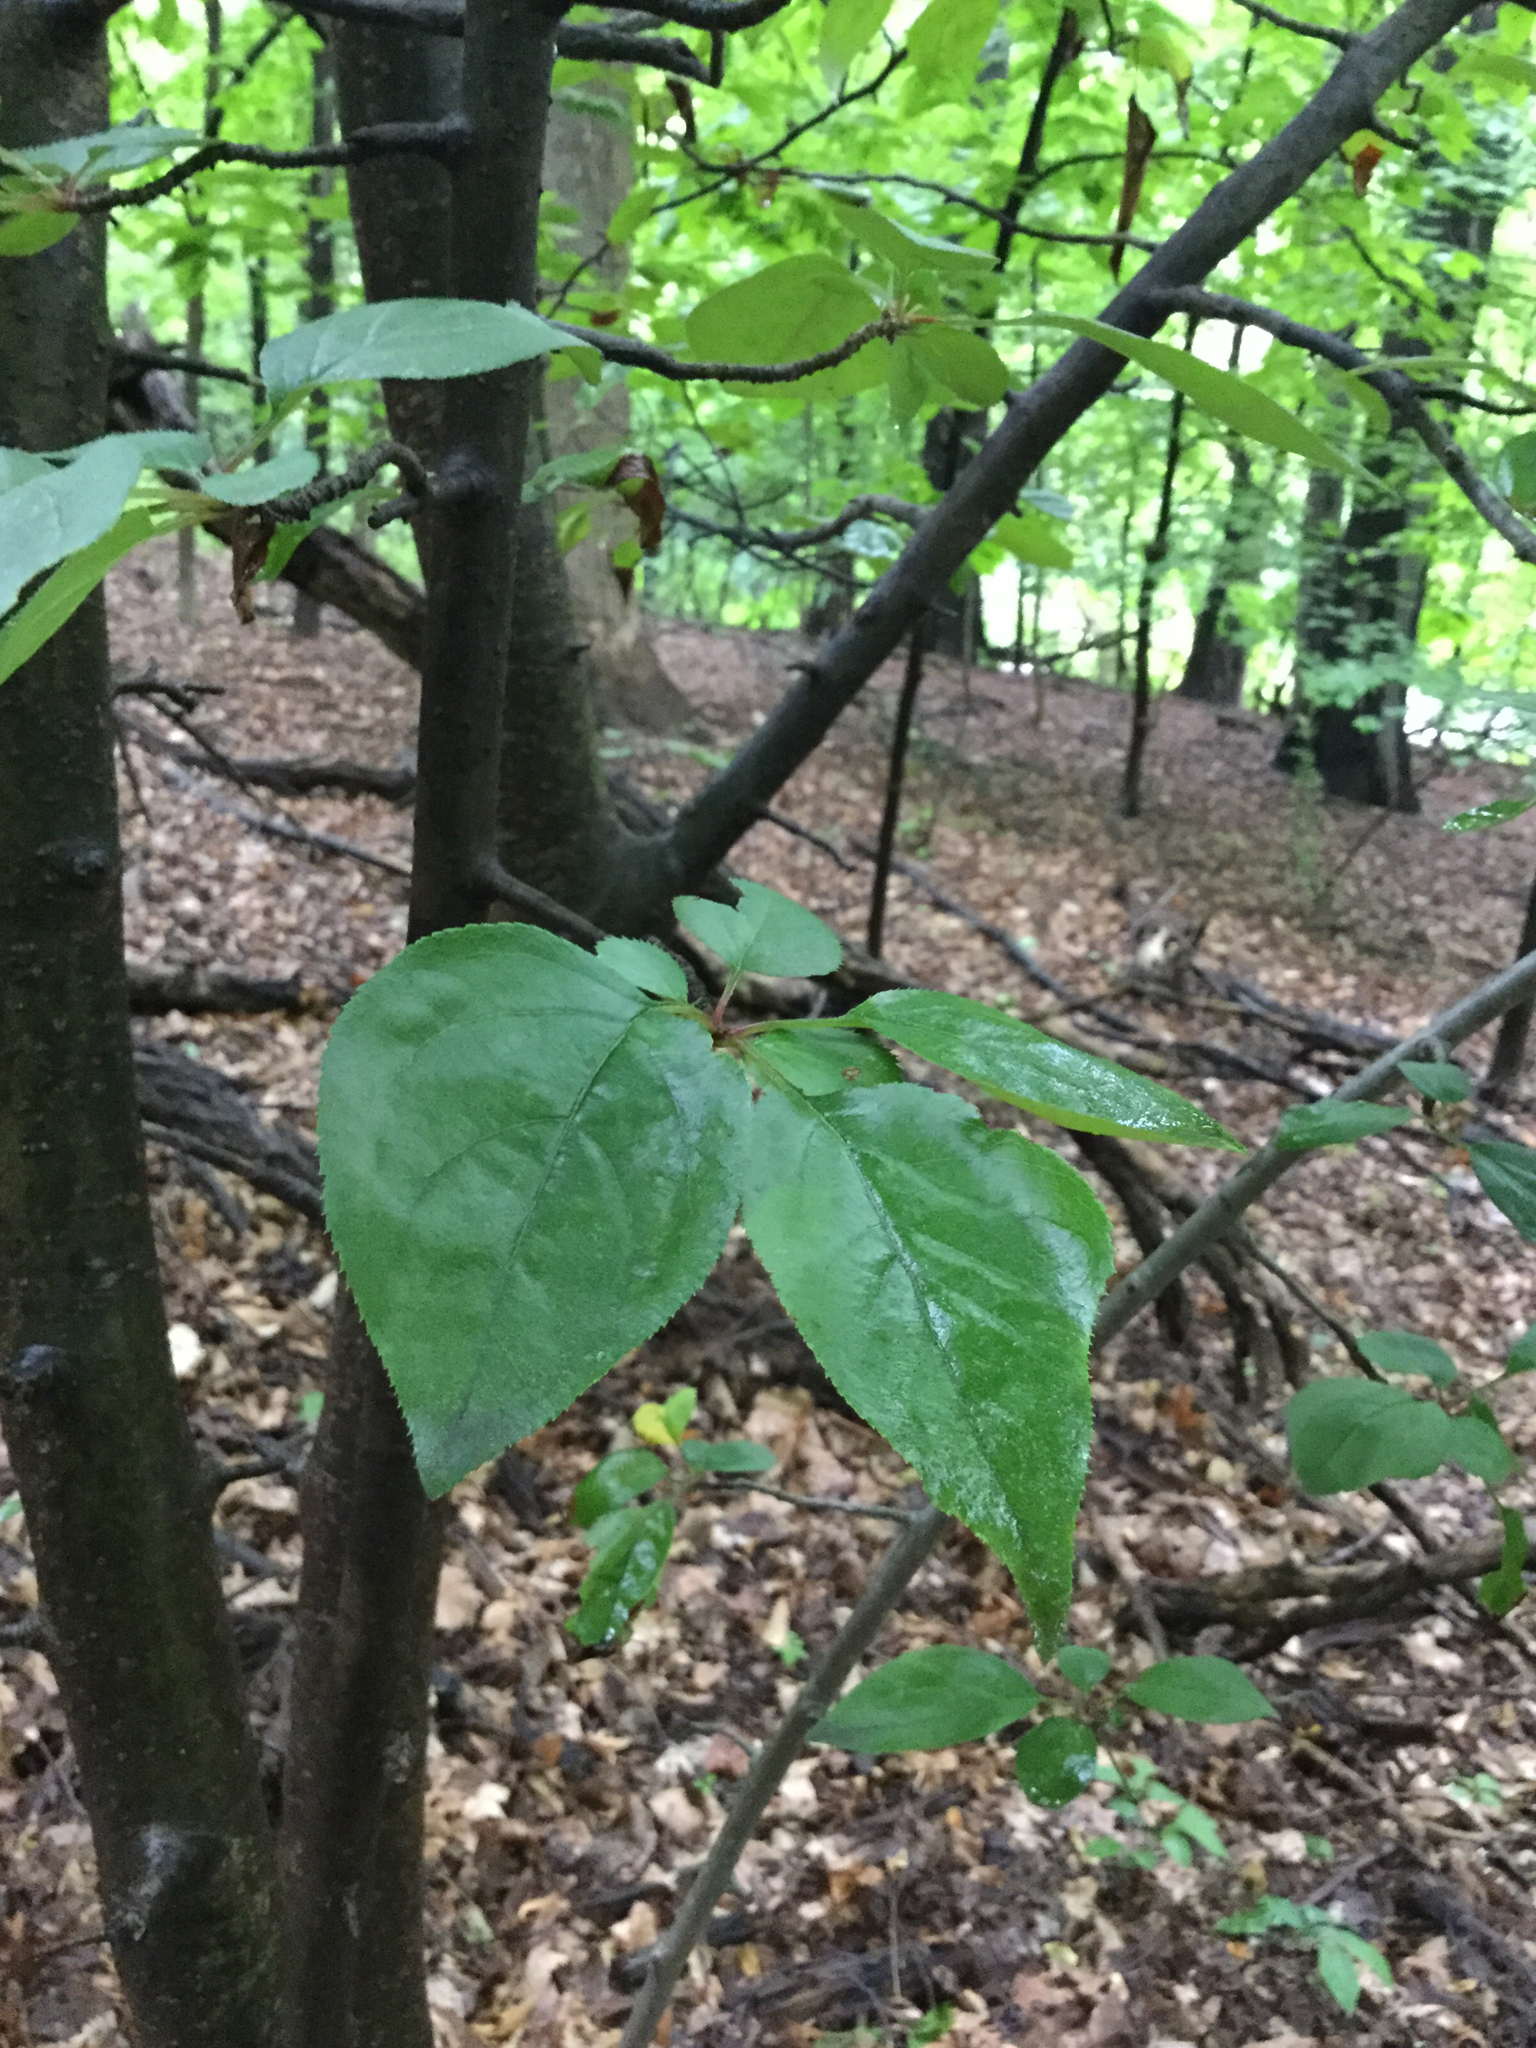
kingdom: Plantae
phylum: Tracheophyta
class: Magnoliopsida
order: Rosales
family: Rosaceae
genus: Prunus
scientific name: Prunus virginiana
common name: Chokecherry
